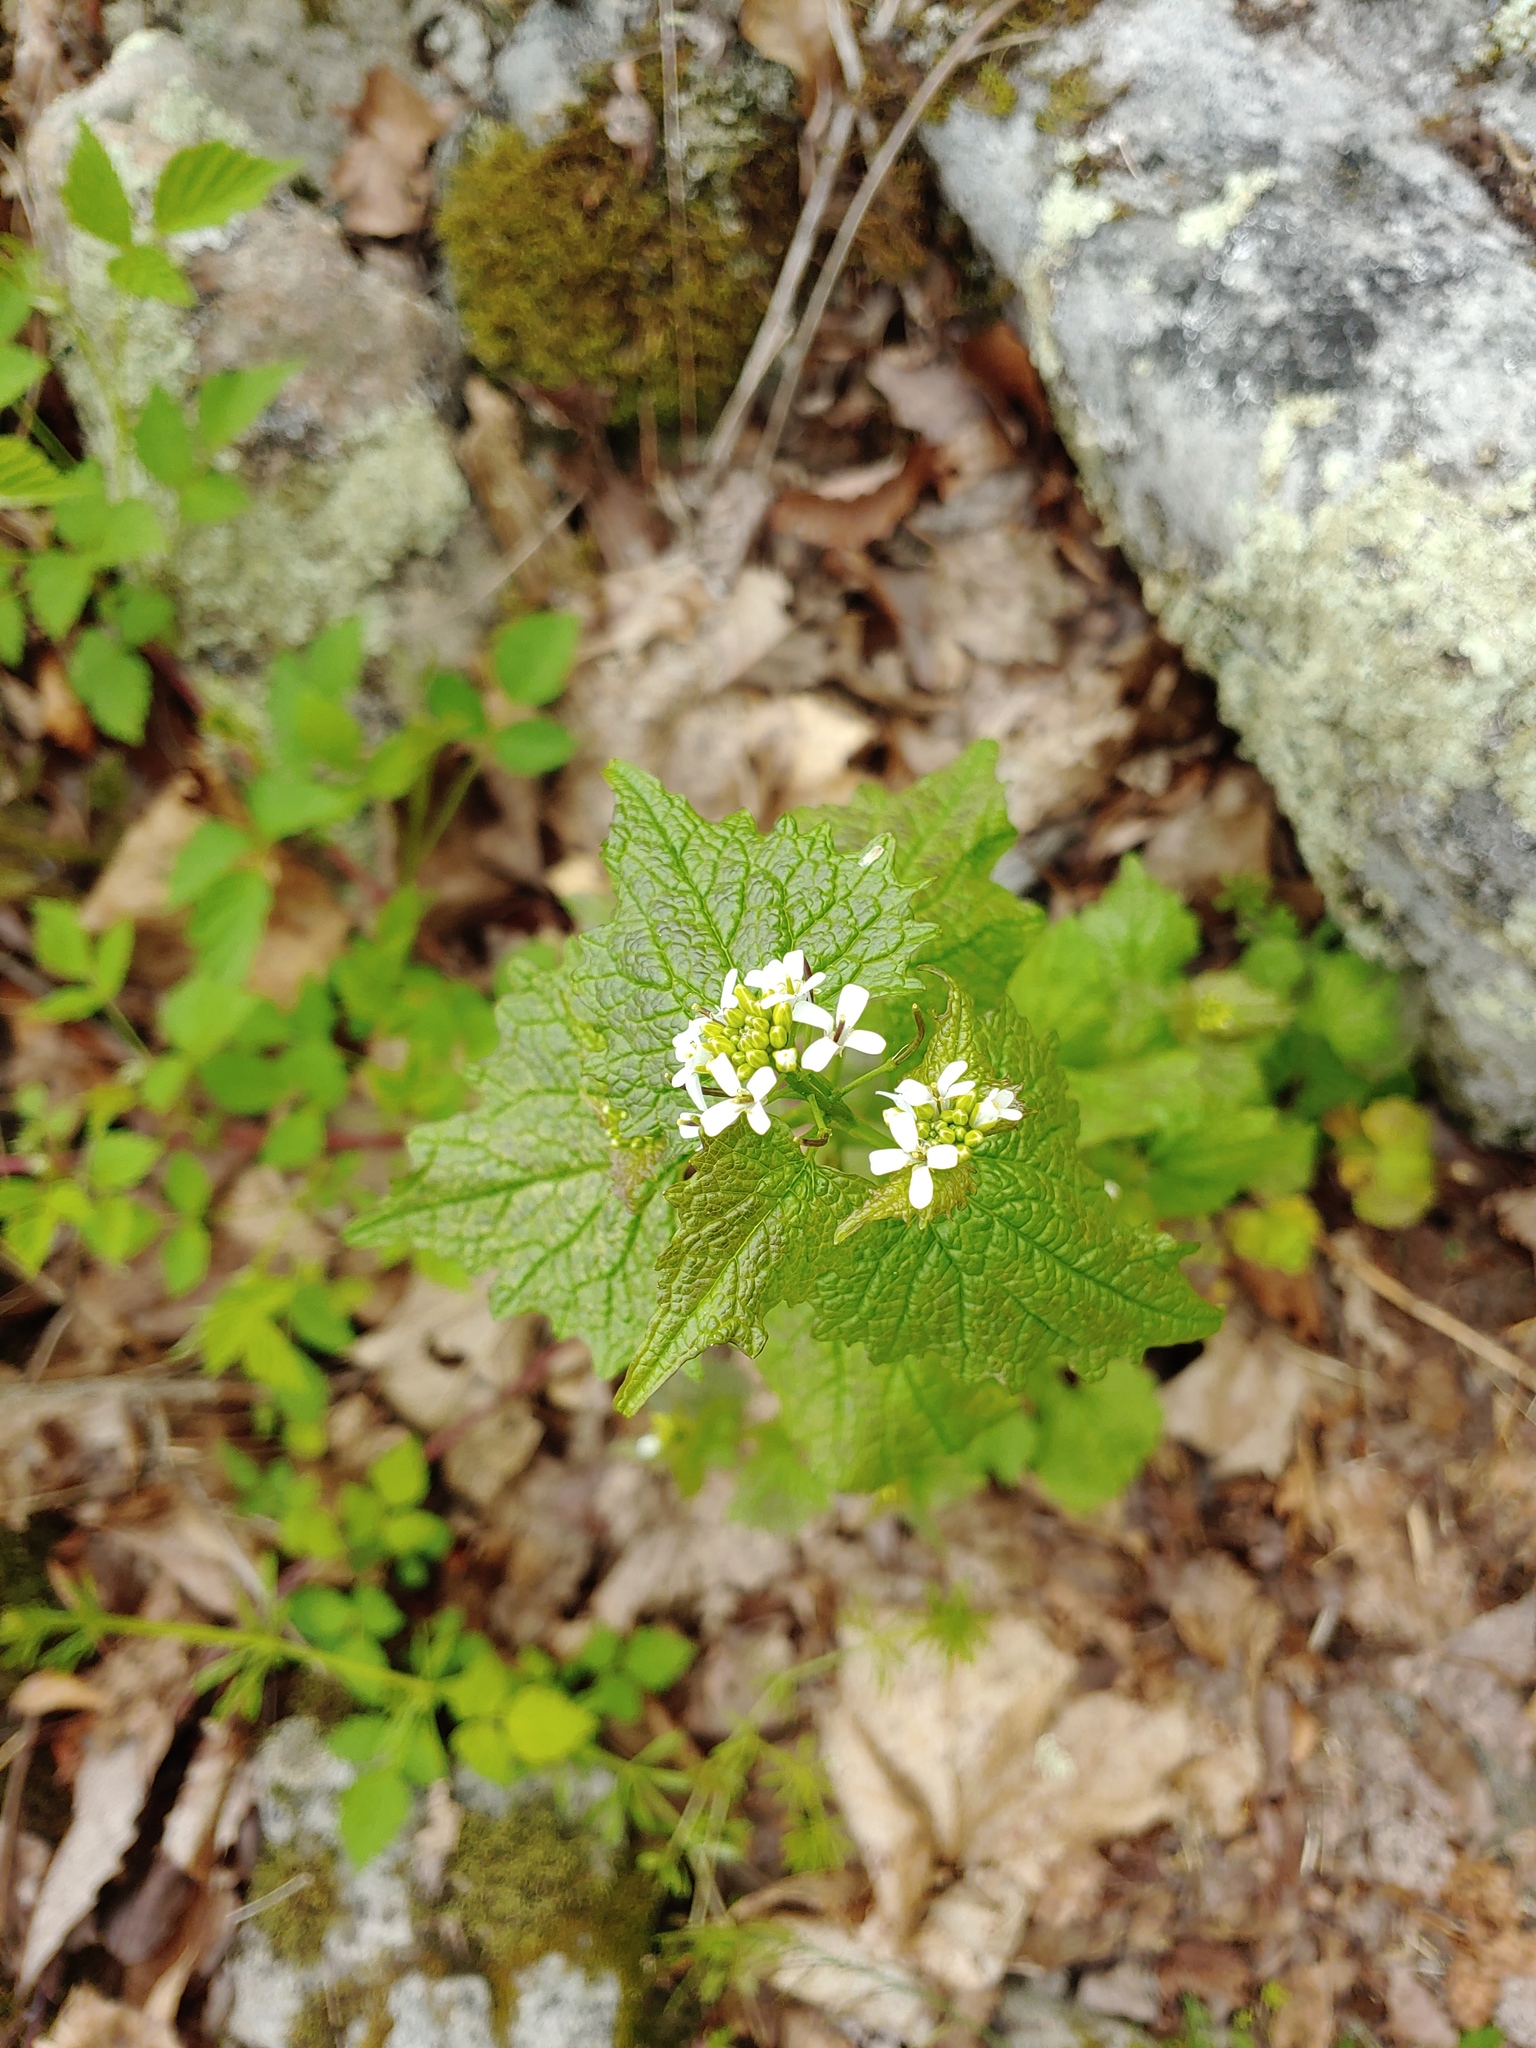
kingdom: Plantae
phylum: Tracheophyta
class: Magnoliopsida
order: Brassicales
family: Brassicaceae
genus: Alliaria
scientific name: Alliaria petiolata
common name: Garlic mustard
